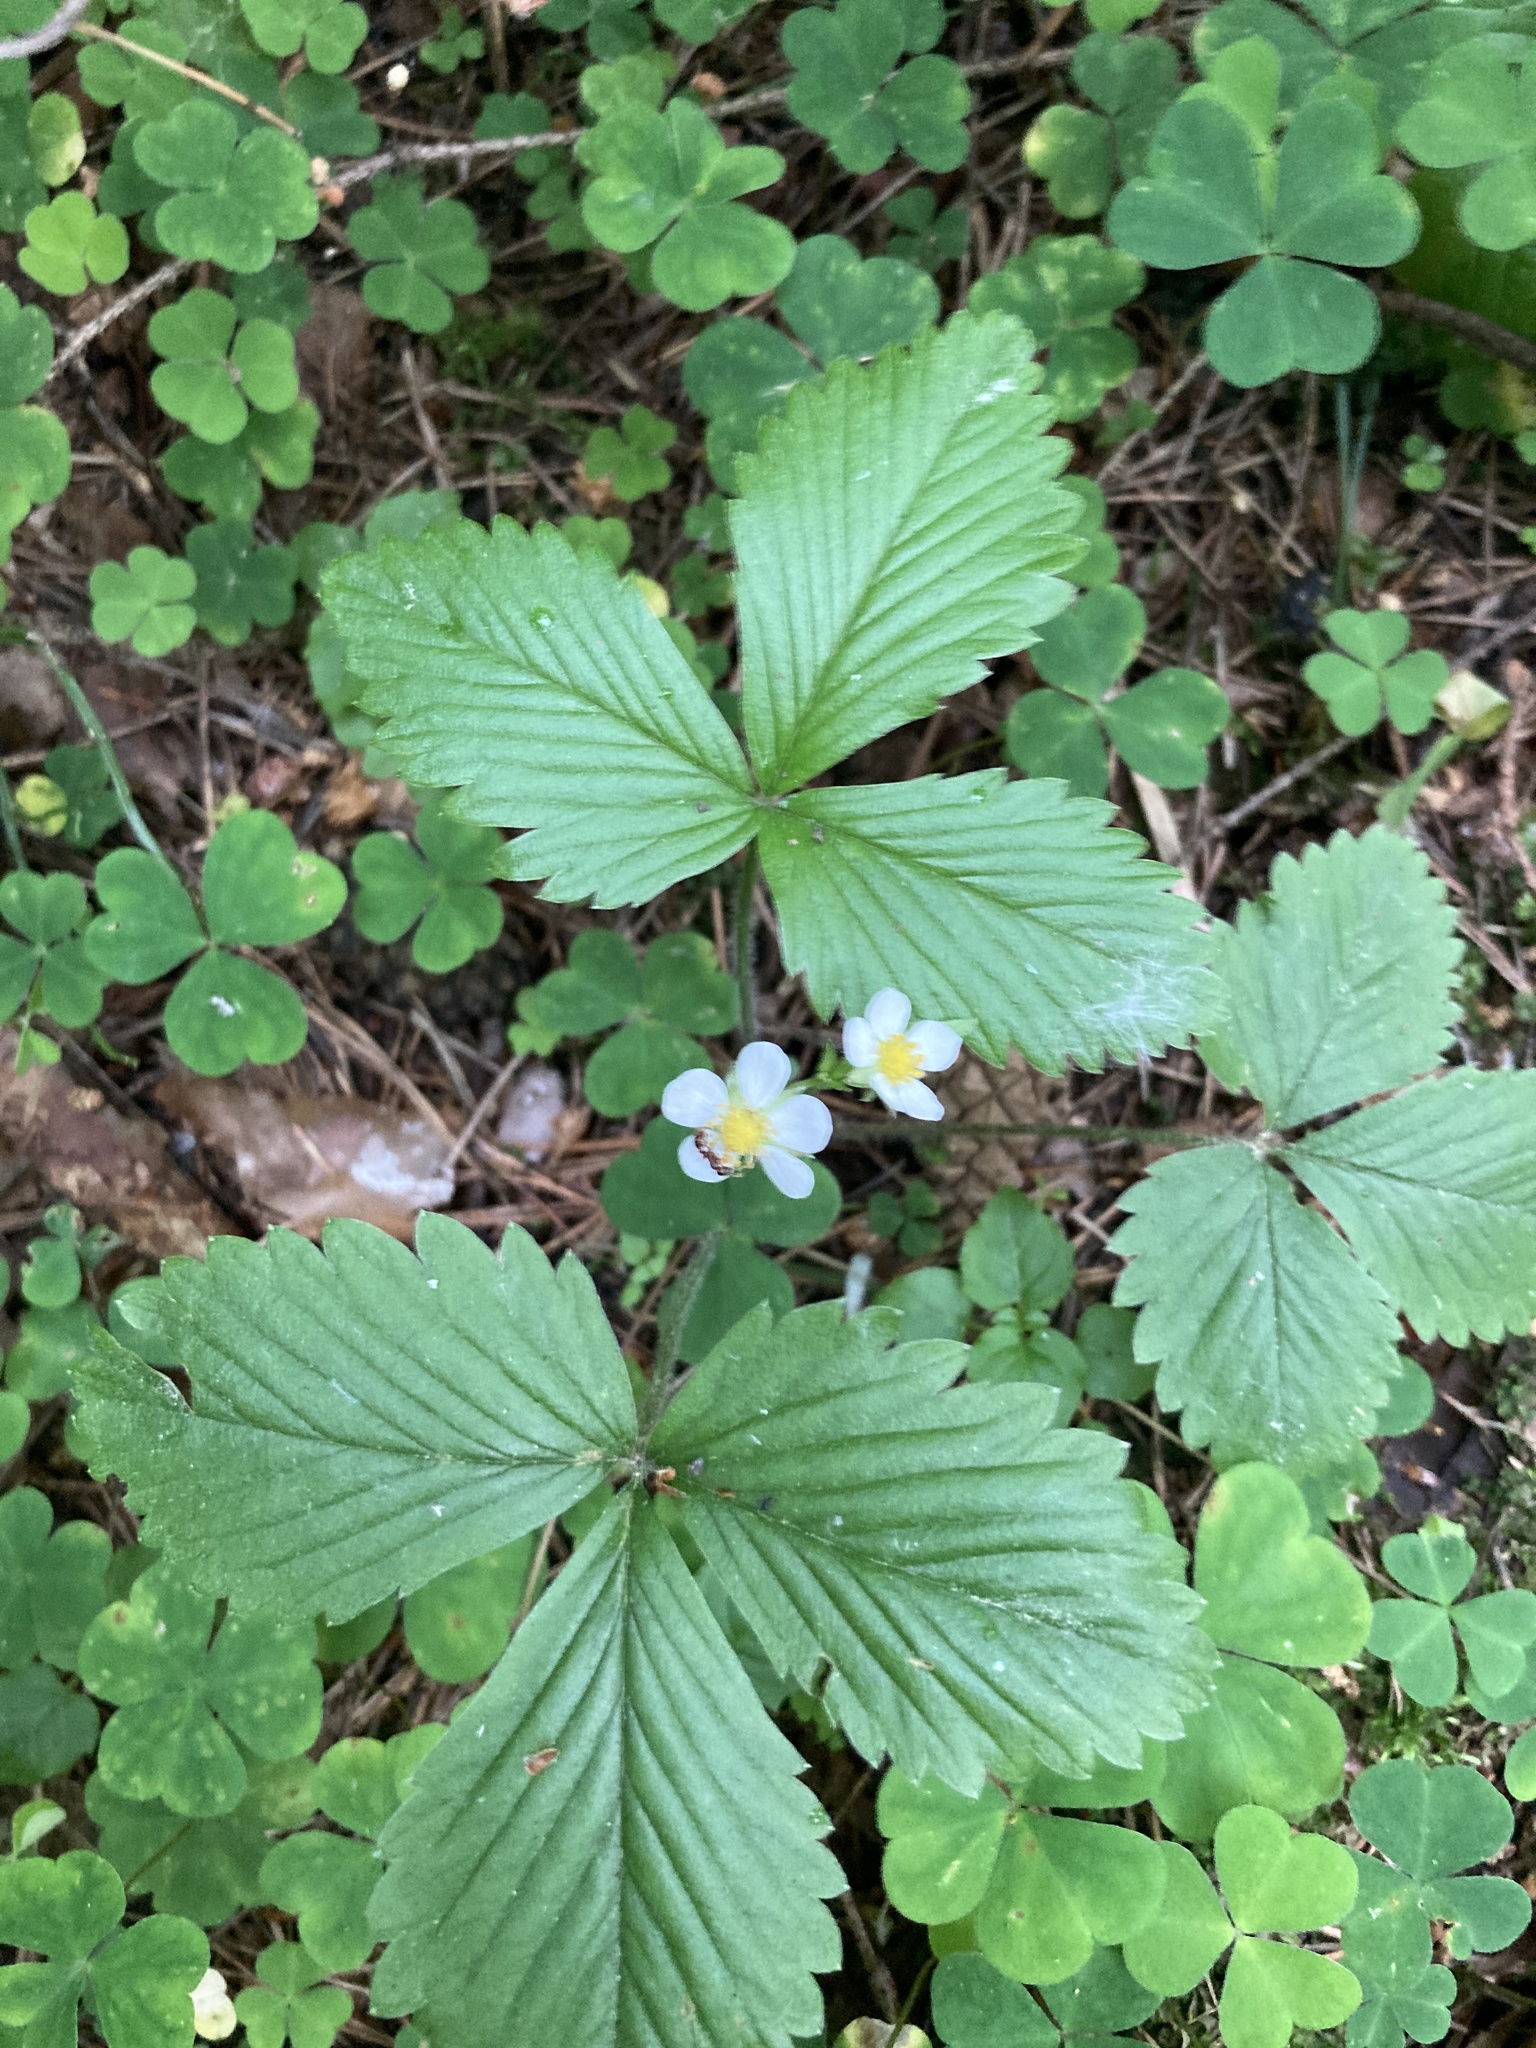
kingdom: Plantae
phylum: Tracheophyta
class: Magnoliopsida
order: Rosales
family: Rosaceae
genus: Fragaria
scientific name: Fragaria vesca
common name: Wild strawberry
